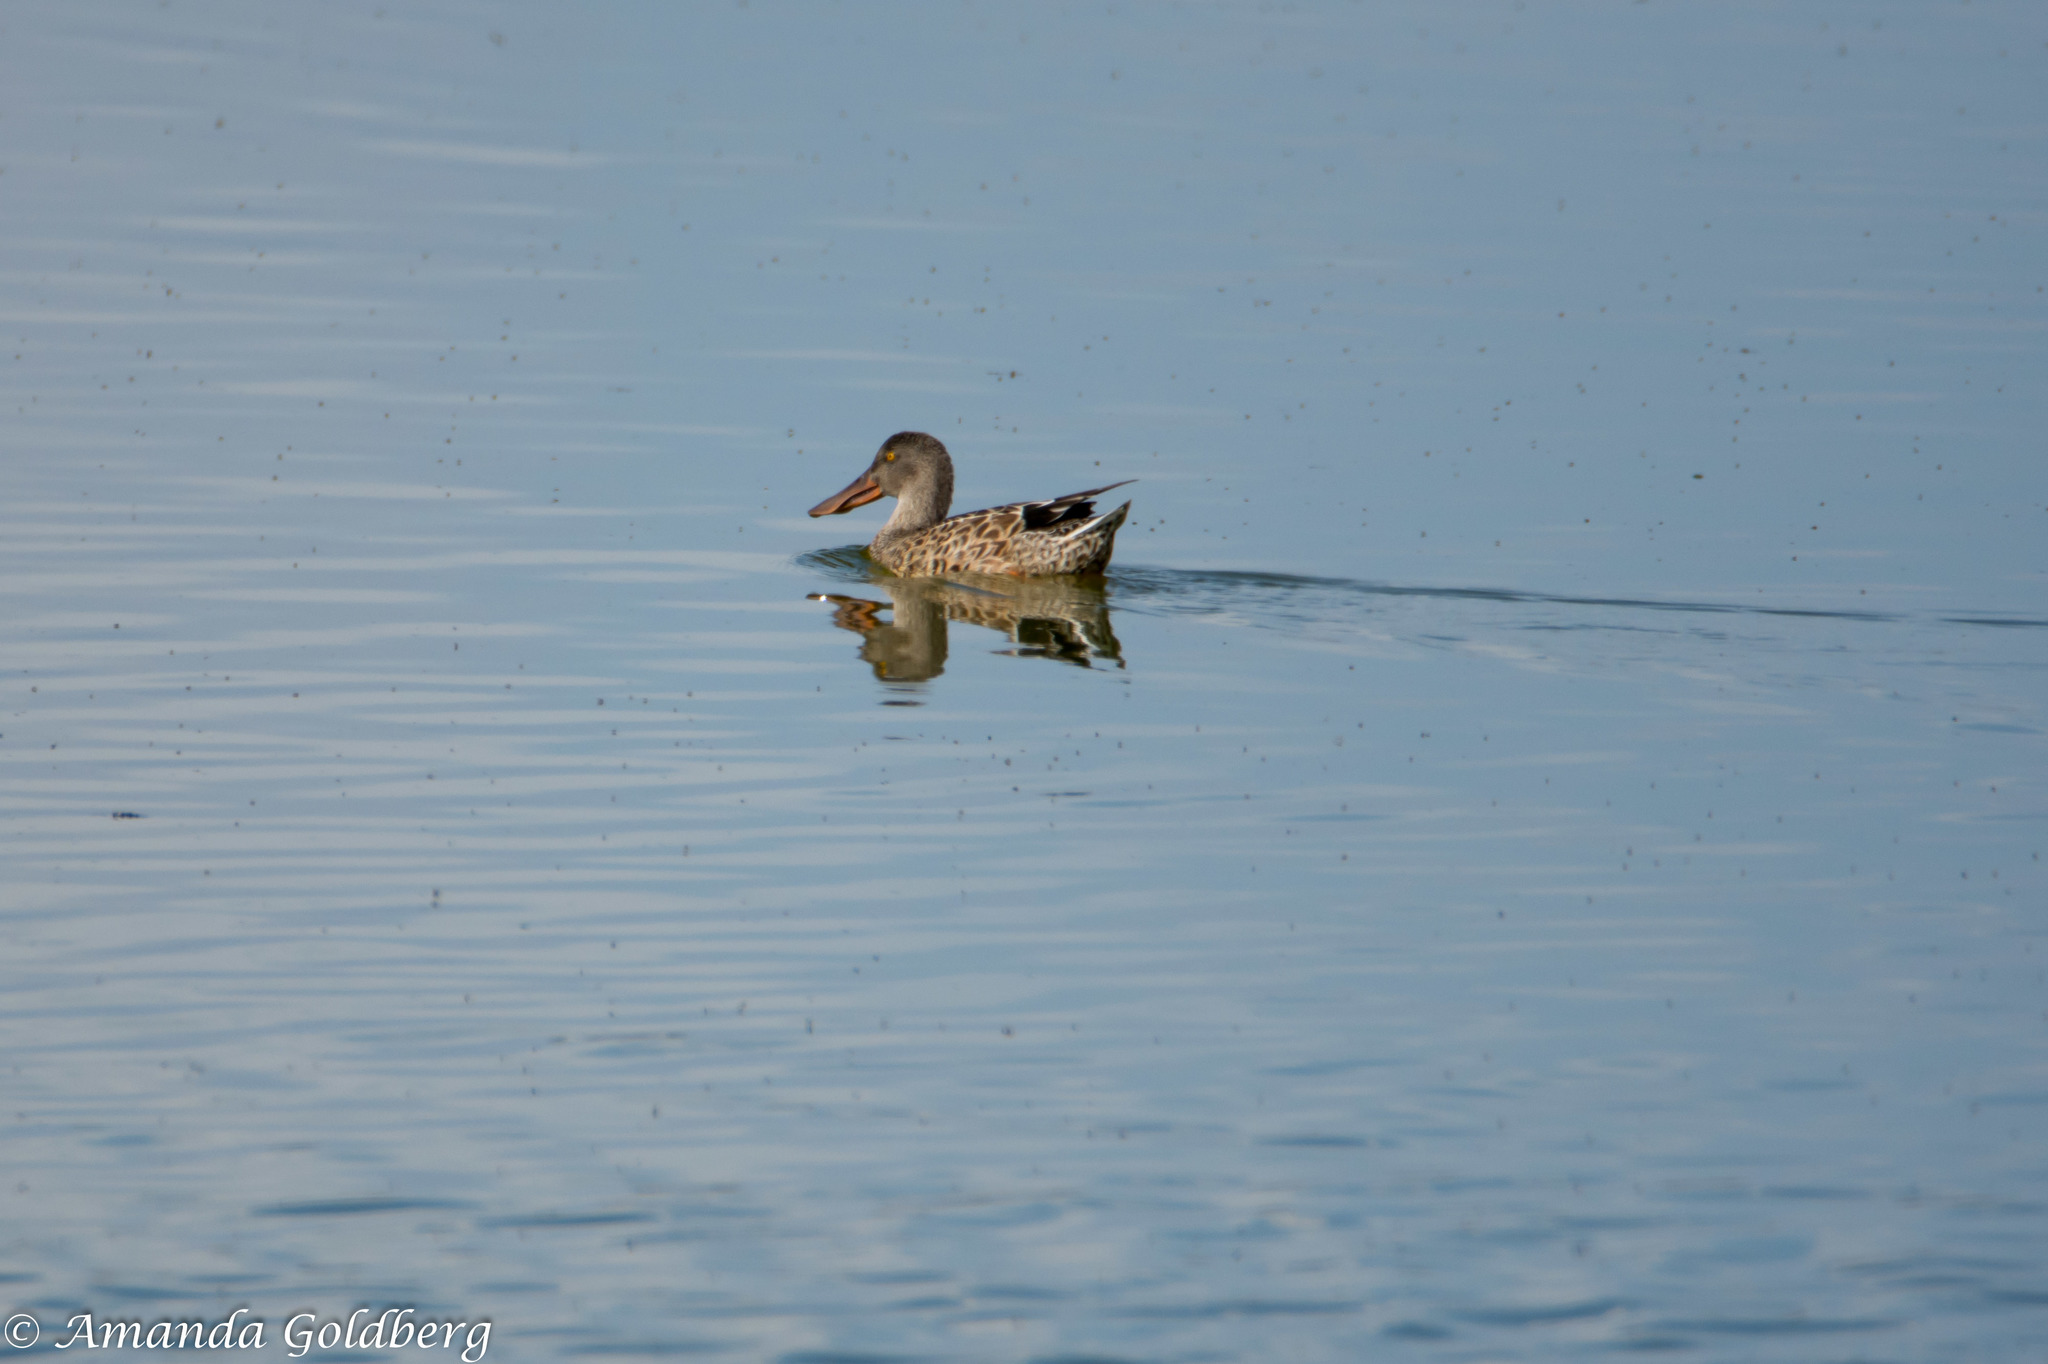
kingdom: Animalia
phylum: Chordata
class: Aves
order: Anseriformes
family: Anatidae
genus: Spatula
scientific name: Spatula clypeata
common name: Northern shoveler
